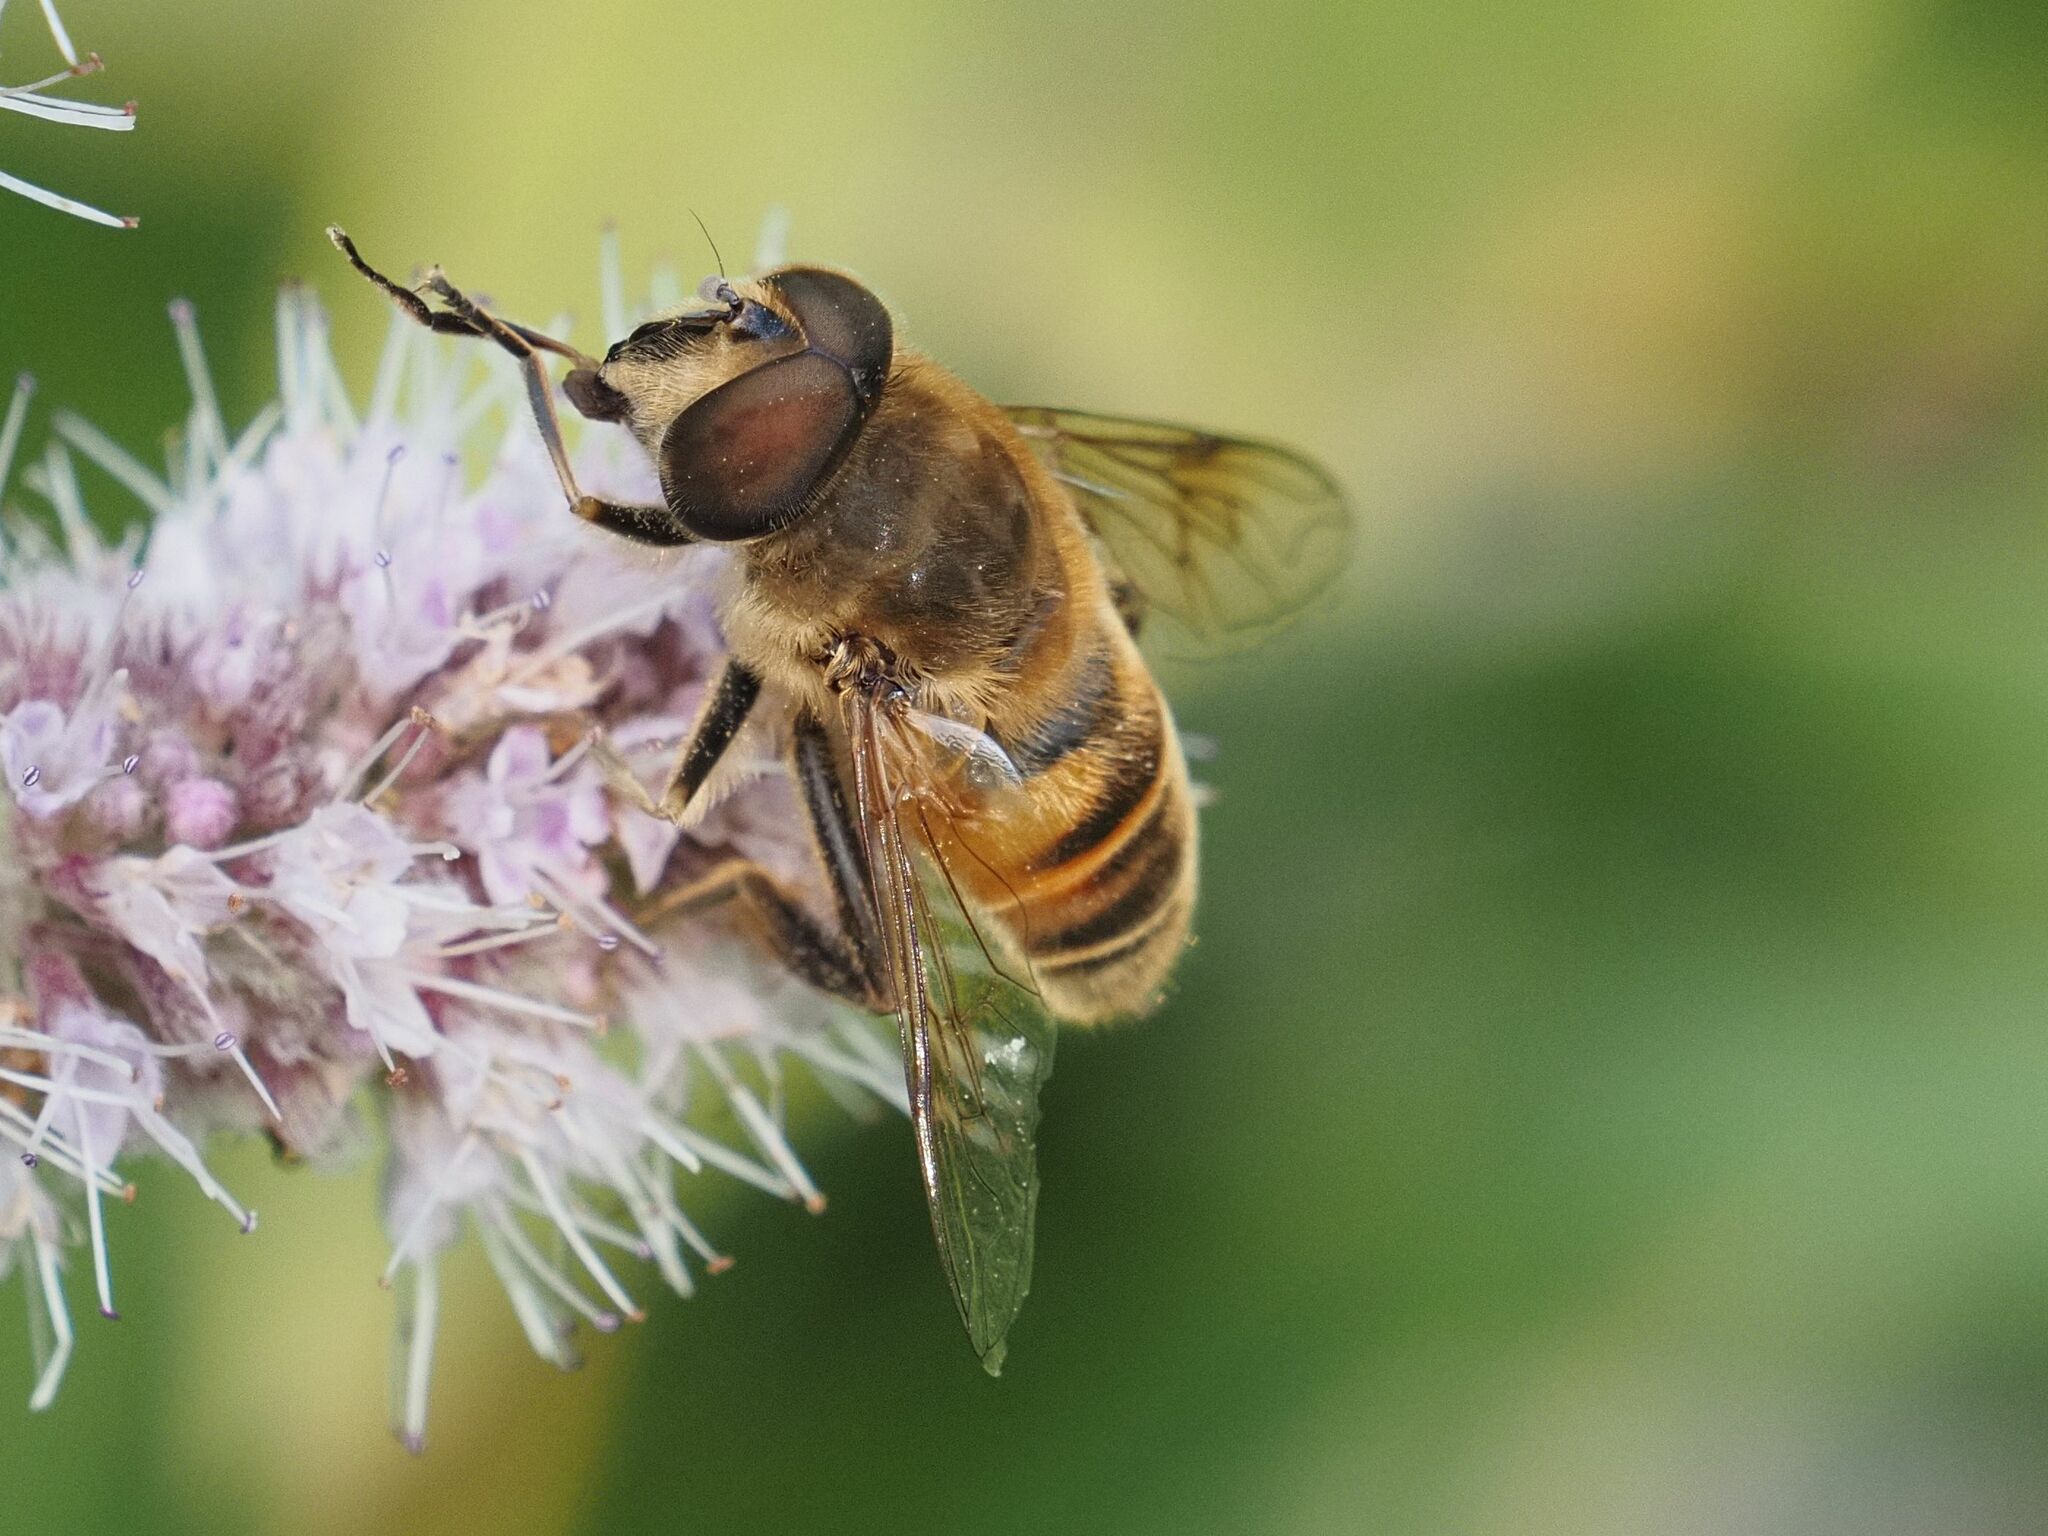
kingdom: Animalia
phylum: Arthropoda
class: Insecta
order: Diptera
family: Syrphidae
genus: Eristalis
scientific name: Eristalis tenax
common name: Drone fly
